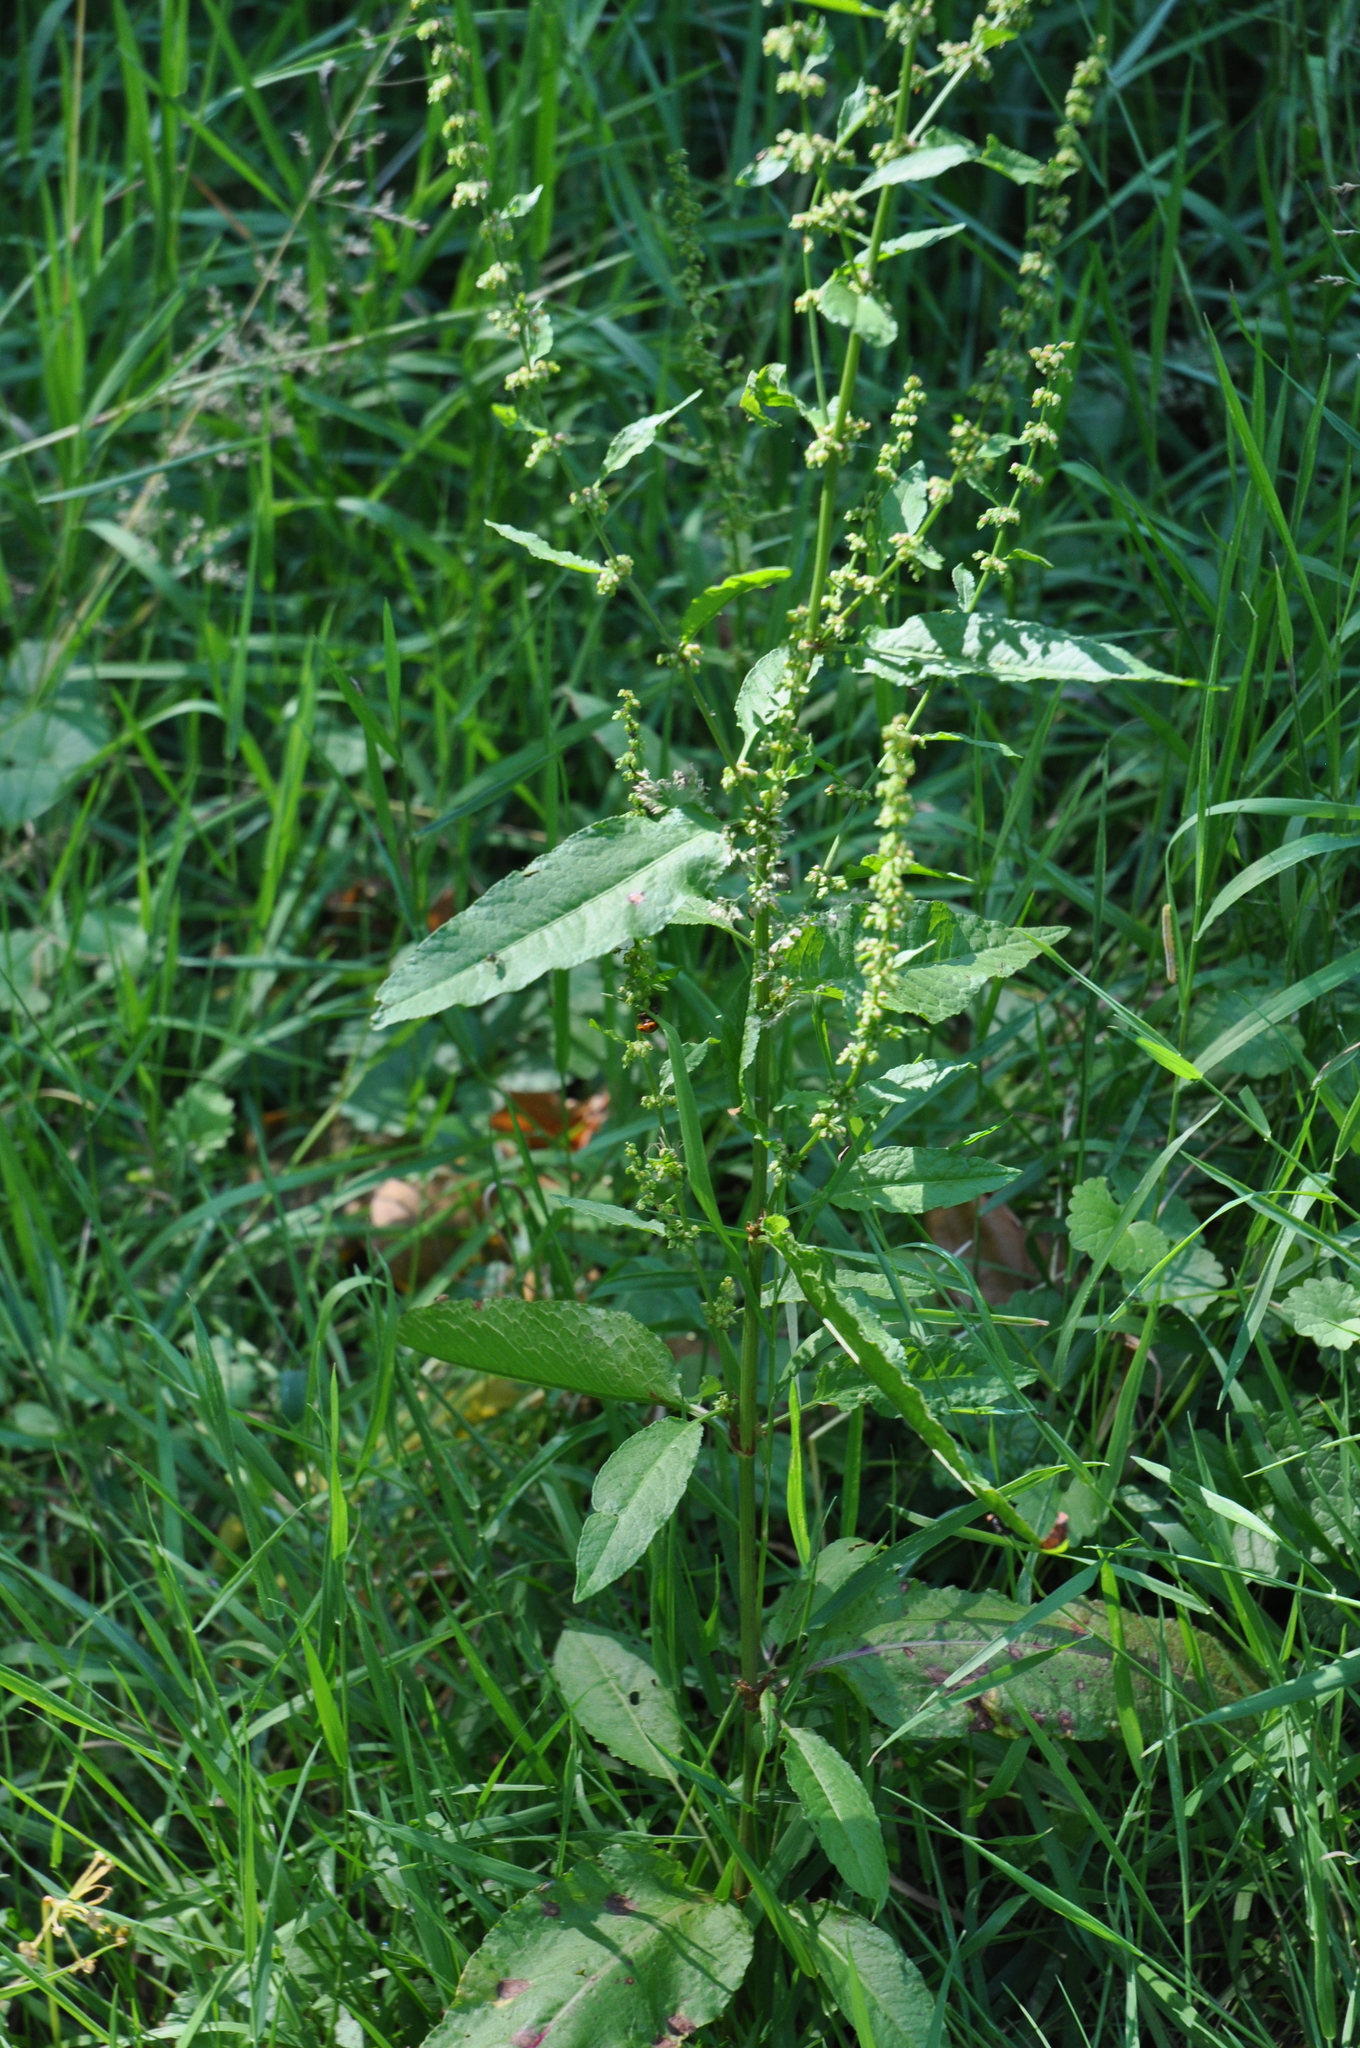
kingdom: Plantae
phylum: Tracheophyta
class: Magnoliopsida
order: Caryophyllales
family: Polygonaceae
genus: Rumex
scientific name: Rumex sanguineus
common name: Wood dock
